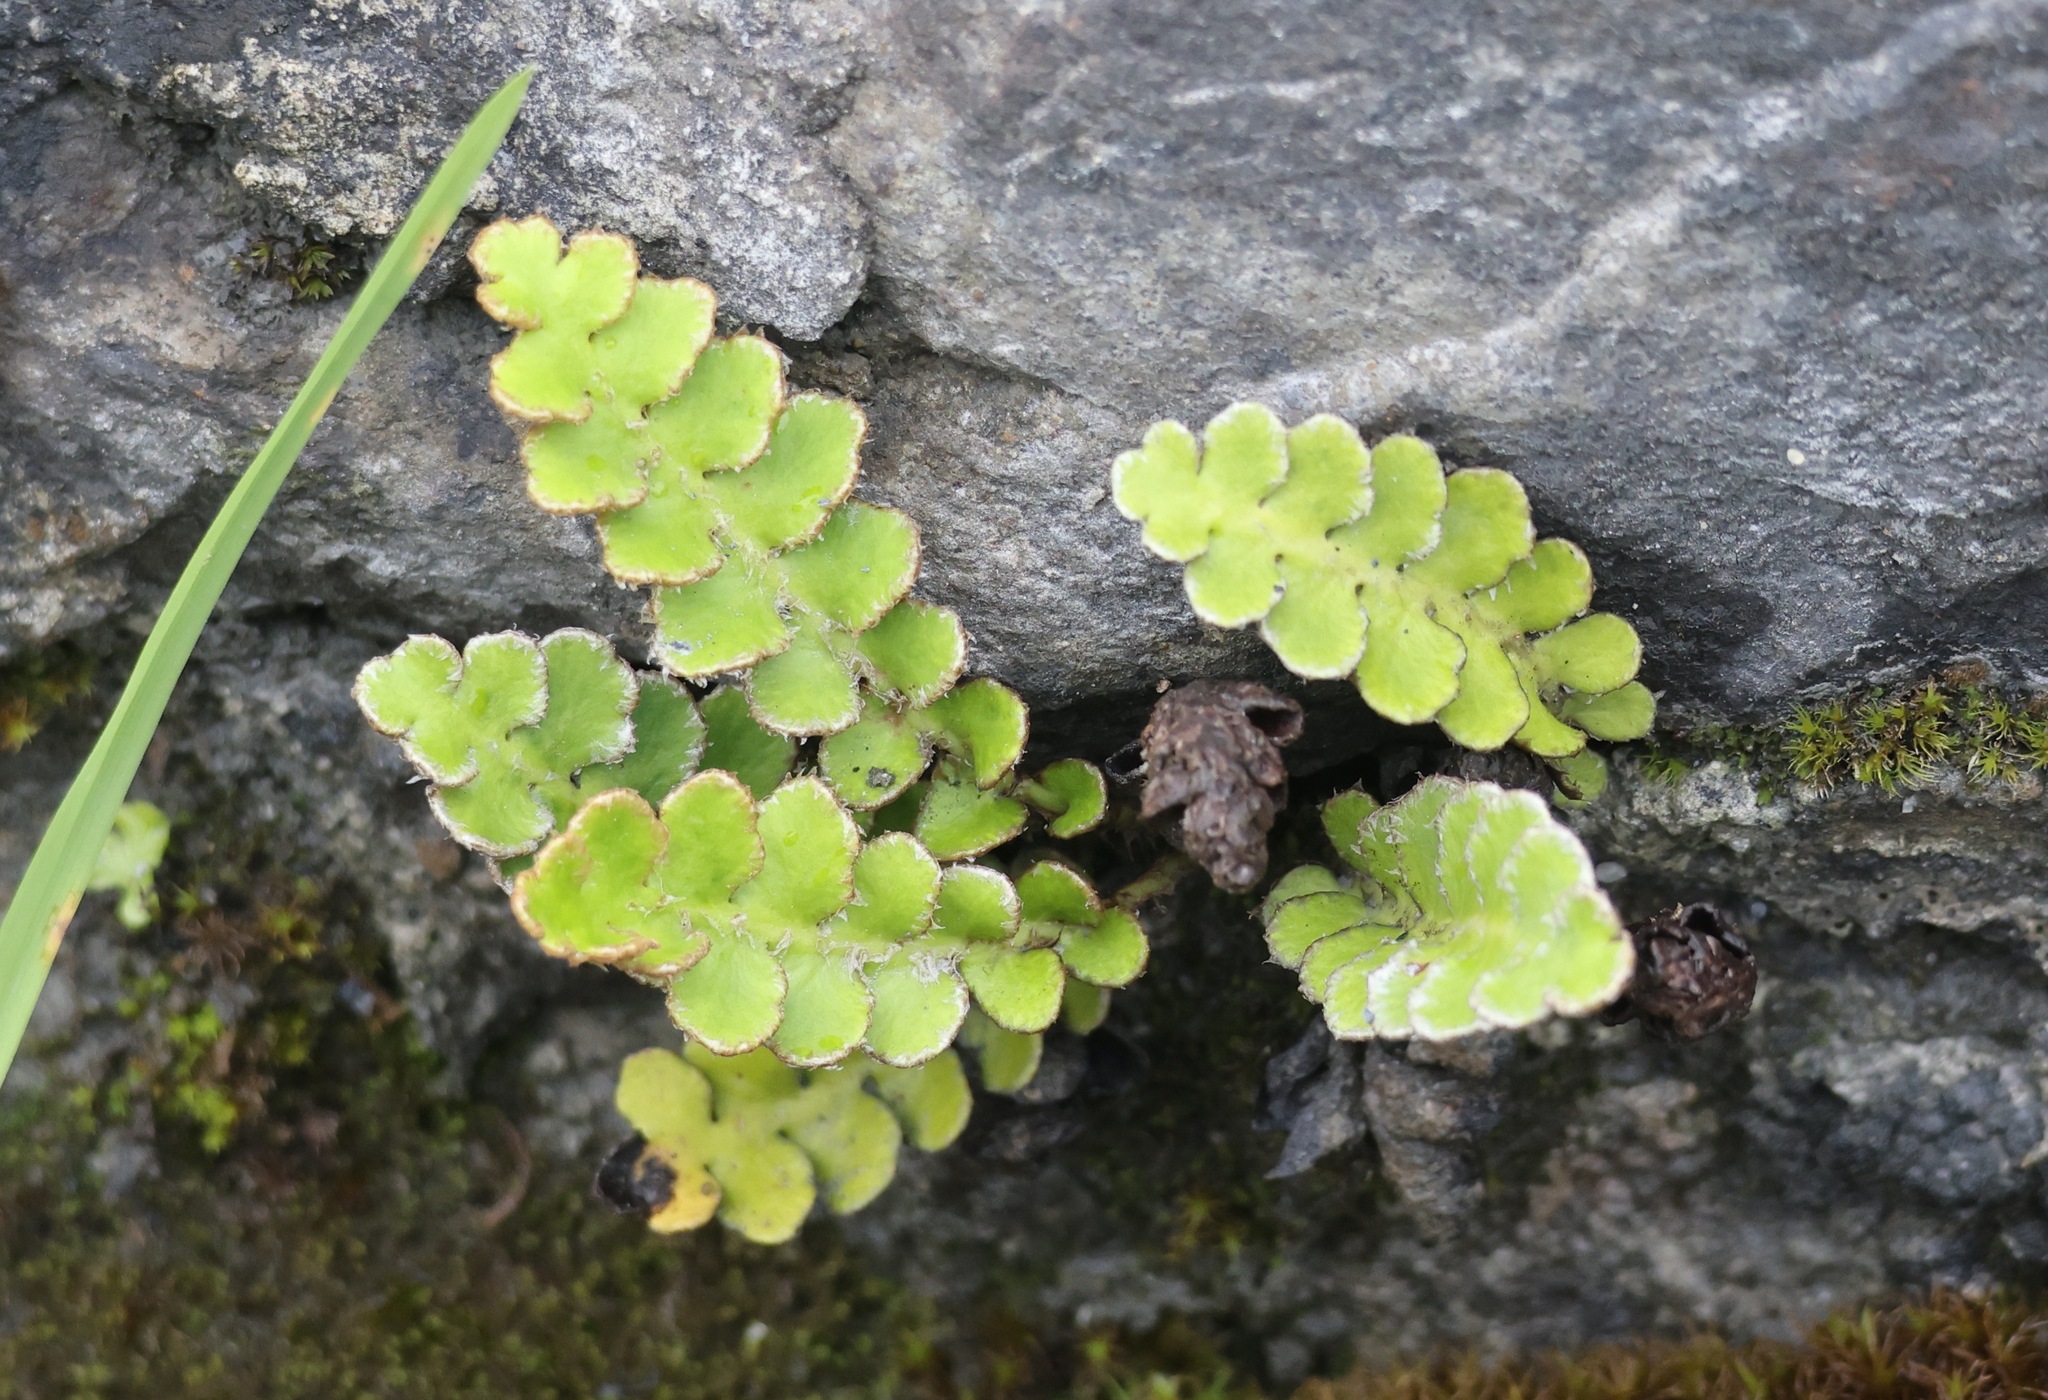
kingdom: Plantae
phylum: Tracheophyta
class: Polypodiopsida
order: Polypodiales
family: Aspleniaceae
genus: Asplenium
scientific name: Asplenium ceterach
